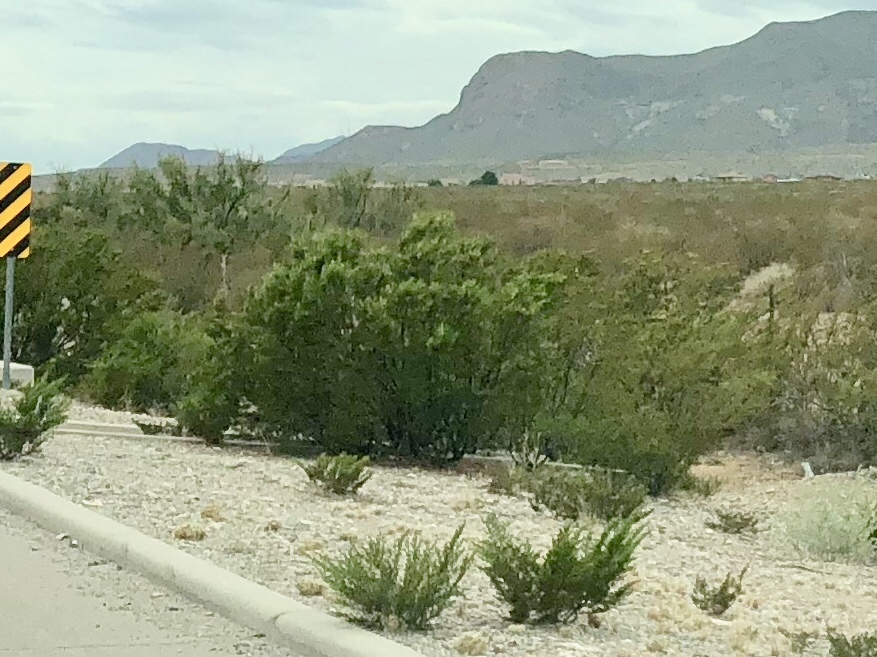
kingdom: Plantae
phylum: Tracheophyta
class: Magnoliopsida
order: Zygophyllales
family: Zygophyllaceae
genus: Larrea
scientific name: Larrea tridentata
